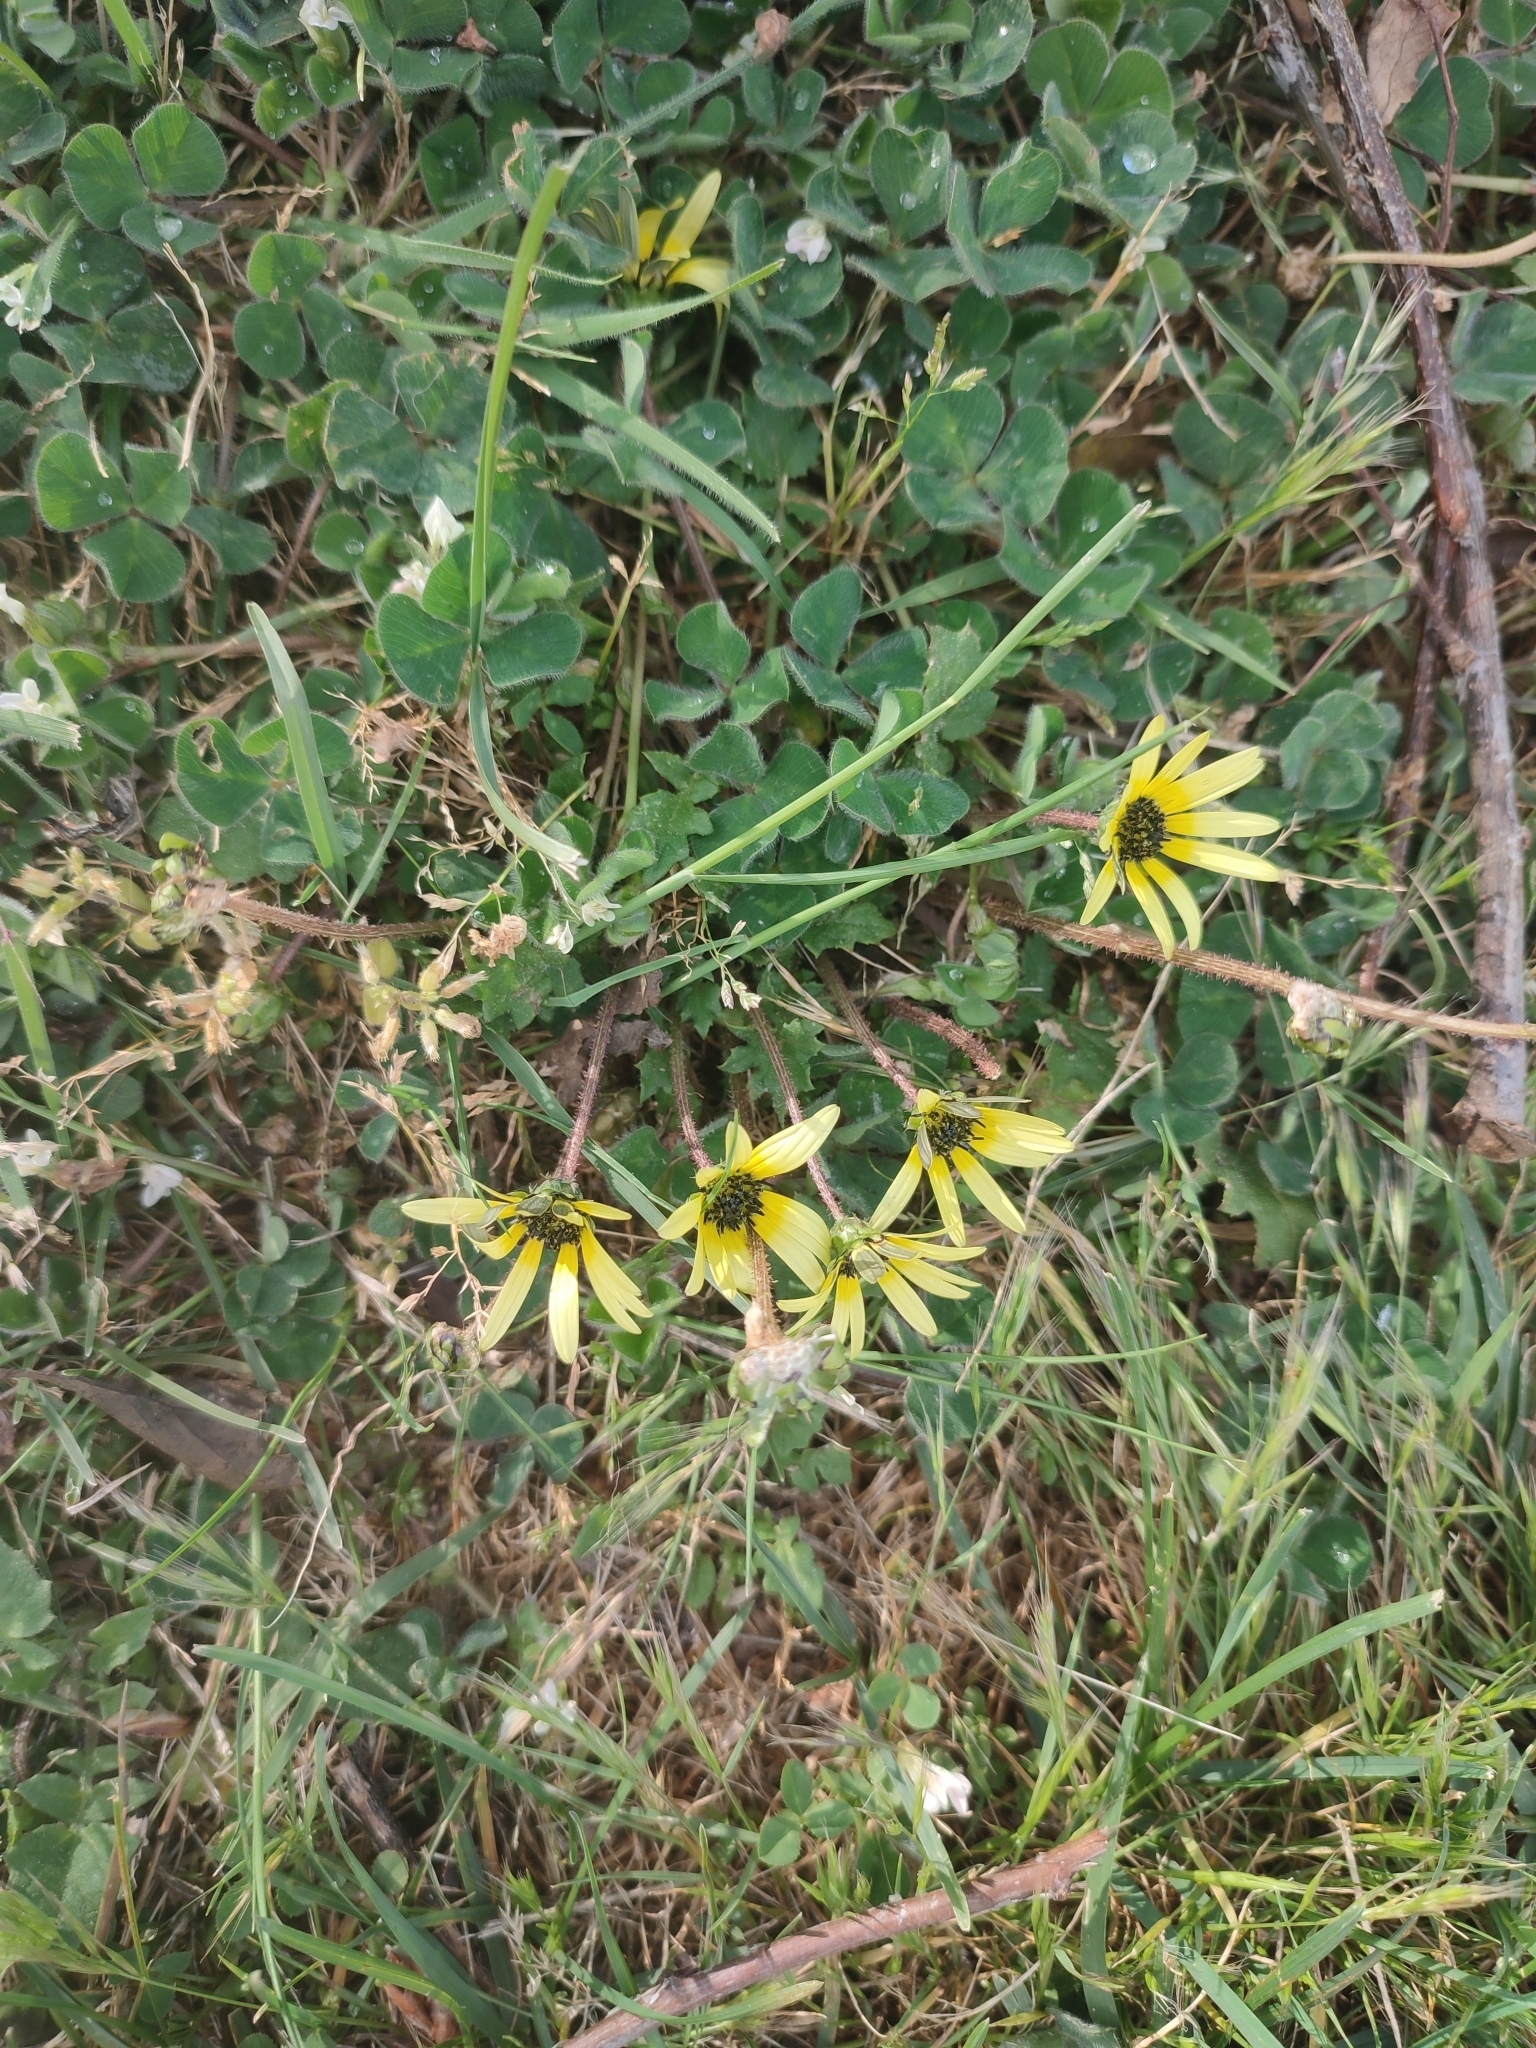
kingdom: Plantae
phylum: Tracheophyta
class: Magnoliopsida
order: Asterales
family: Asteraceae
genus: Arctotheca
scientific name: Arctotheca calendula
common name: Capeweed
